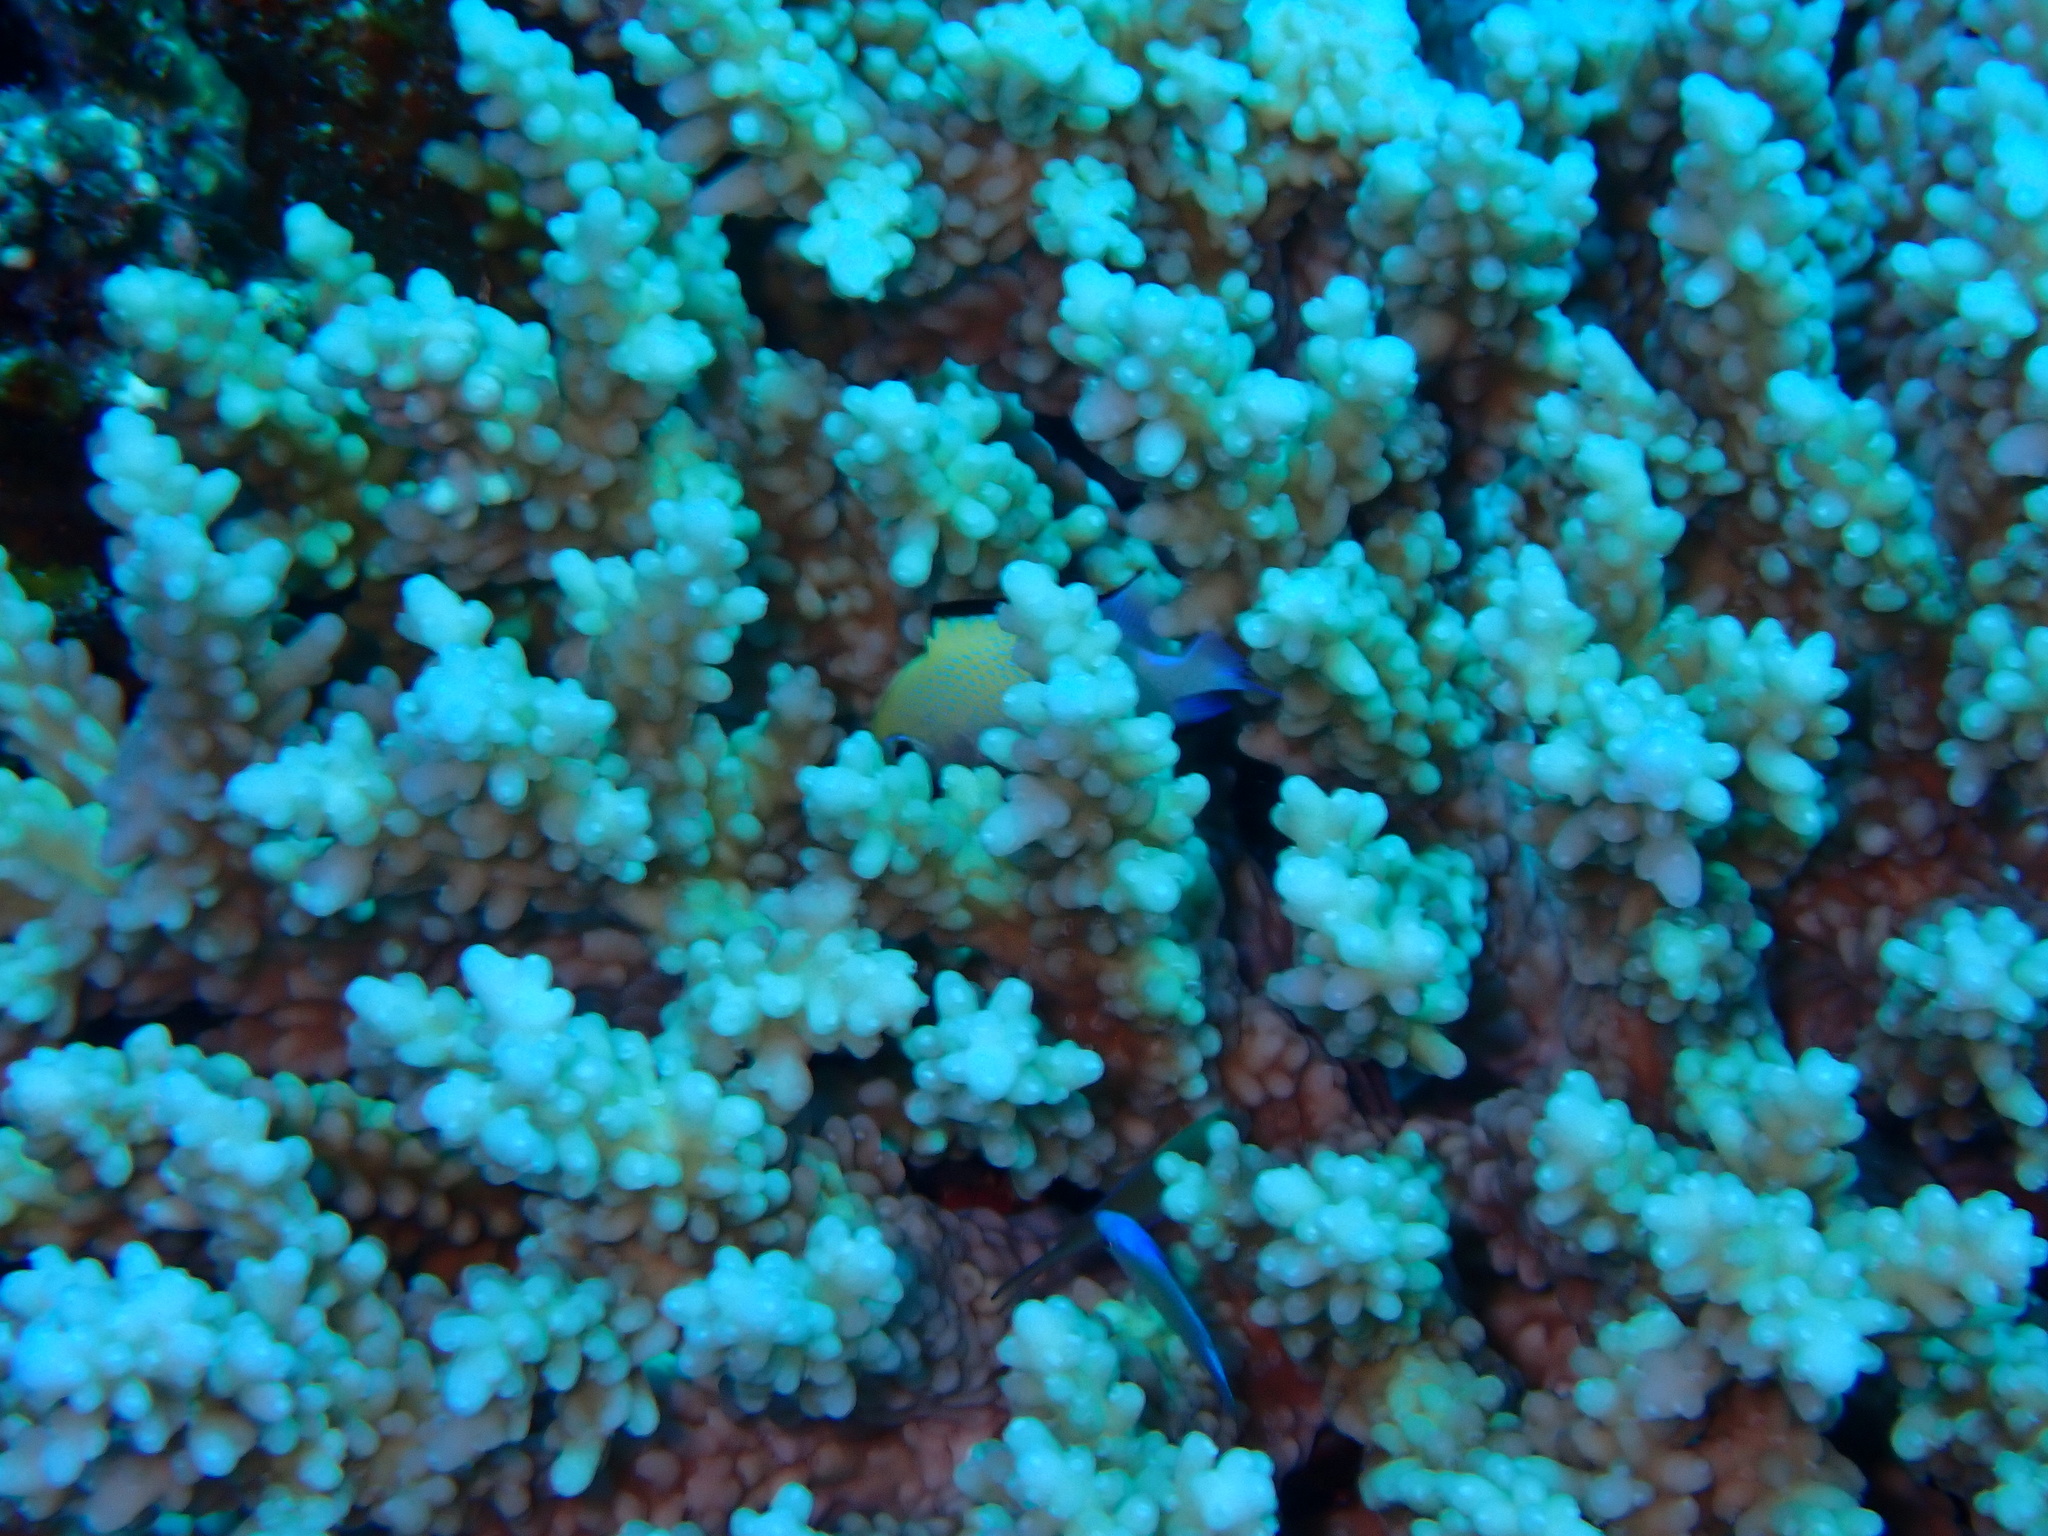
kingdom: Animalia
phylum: Cnidaria
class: Anthozoa
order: Scleractinia
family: Acroporidae
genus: Acropora
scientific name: Acropora hemprichii
